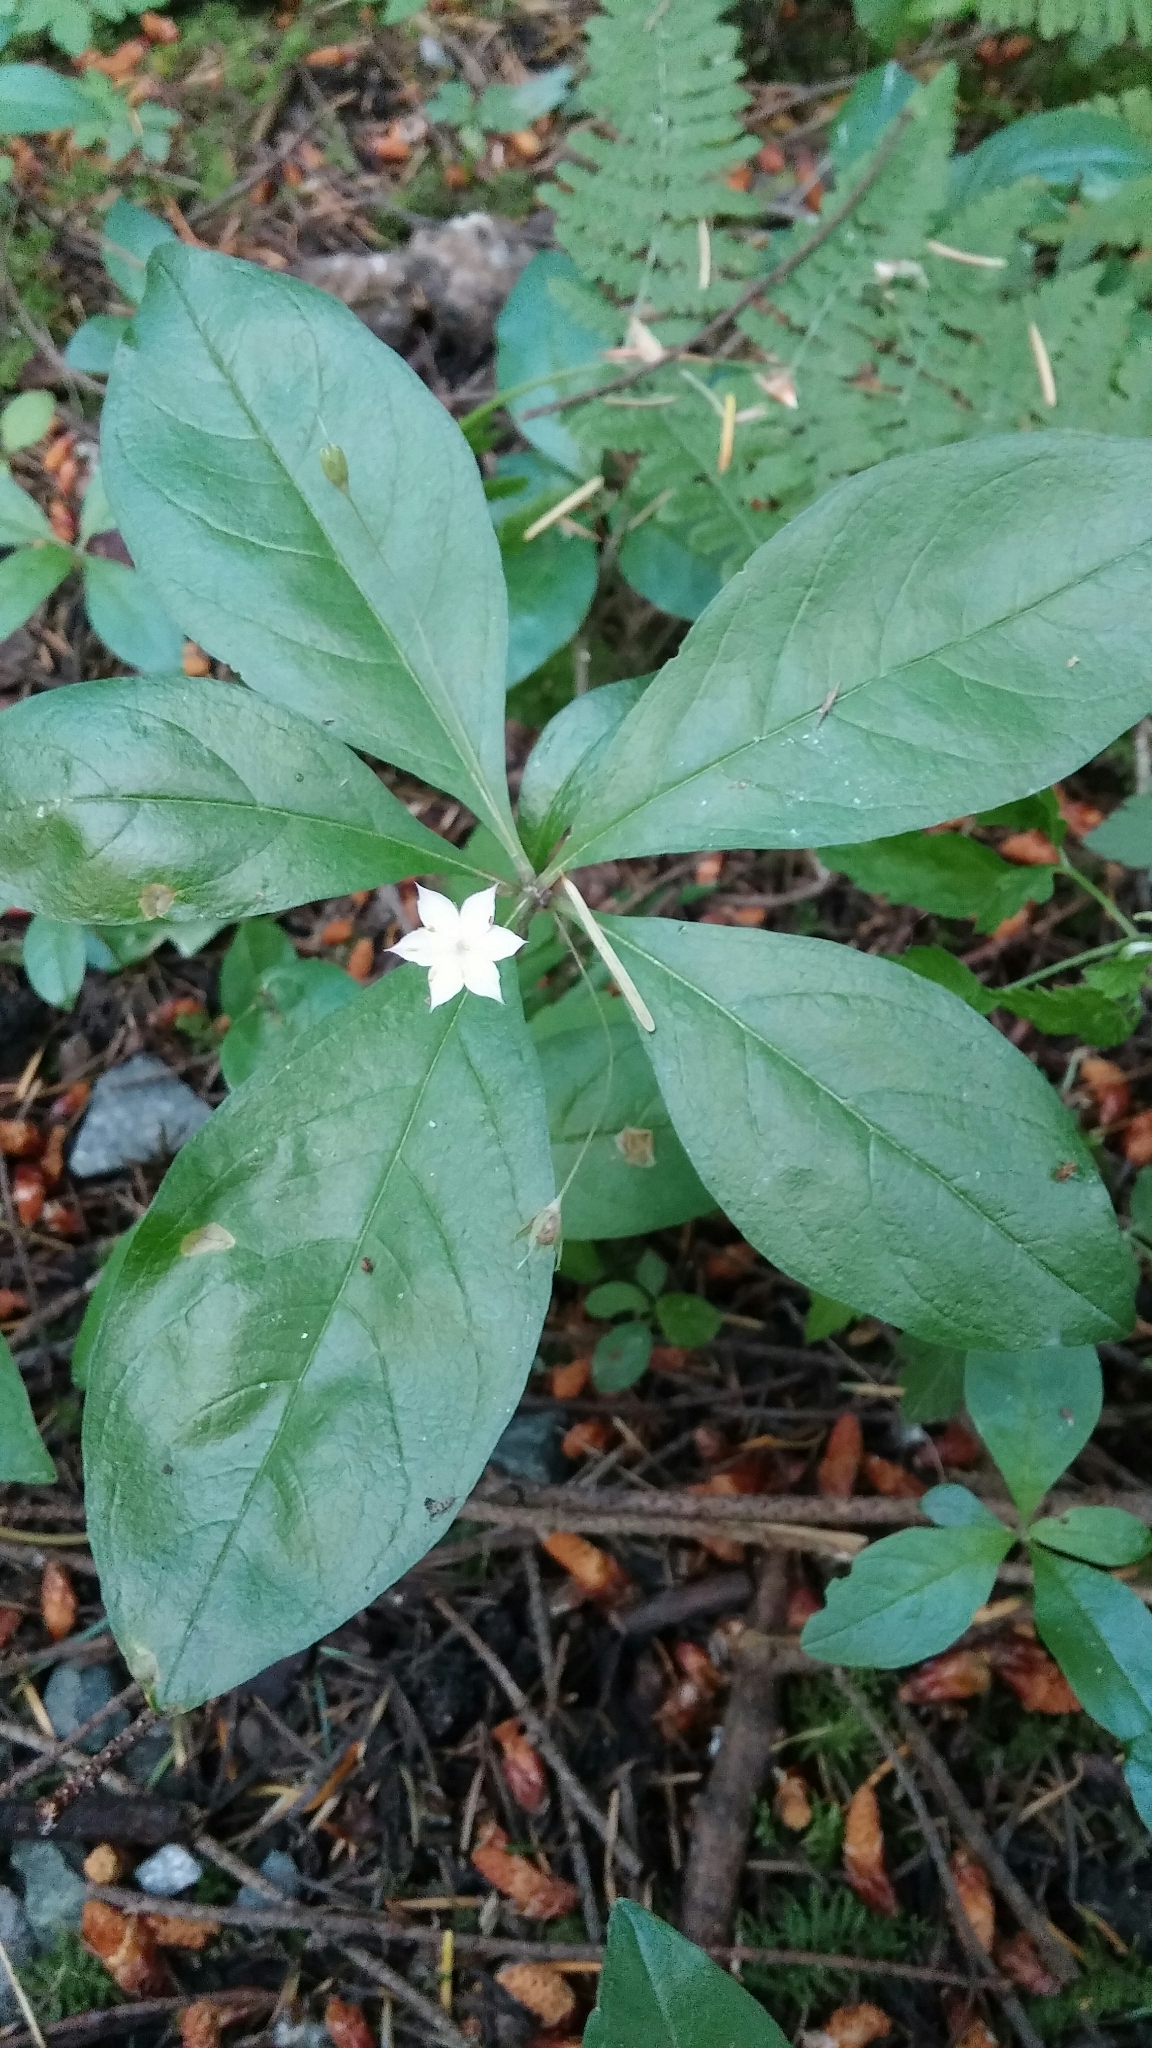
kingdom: Plantae
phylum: Tracheophyta
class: Magnoliopsida
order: Ericales
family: Primulaceae
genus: Lysimachia
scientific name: Lysimachia latifolia
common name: Pacific starflower
